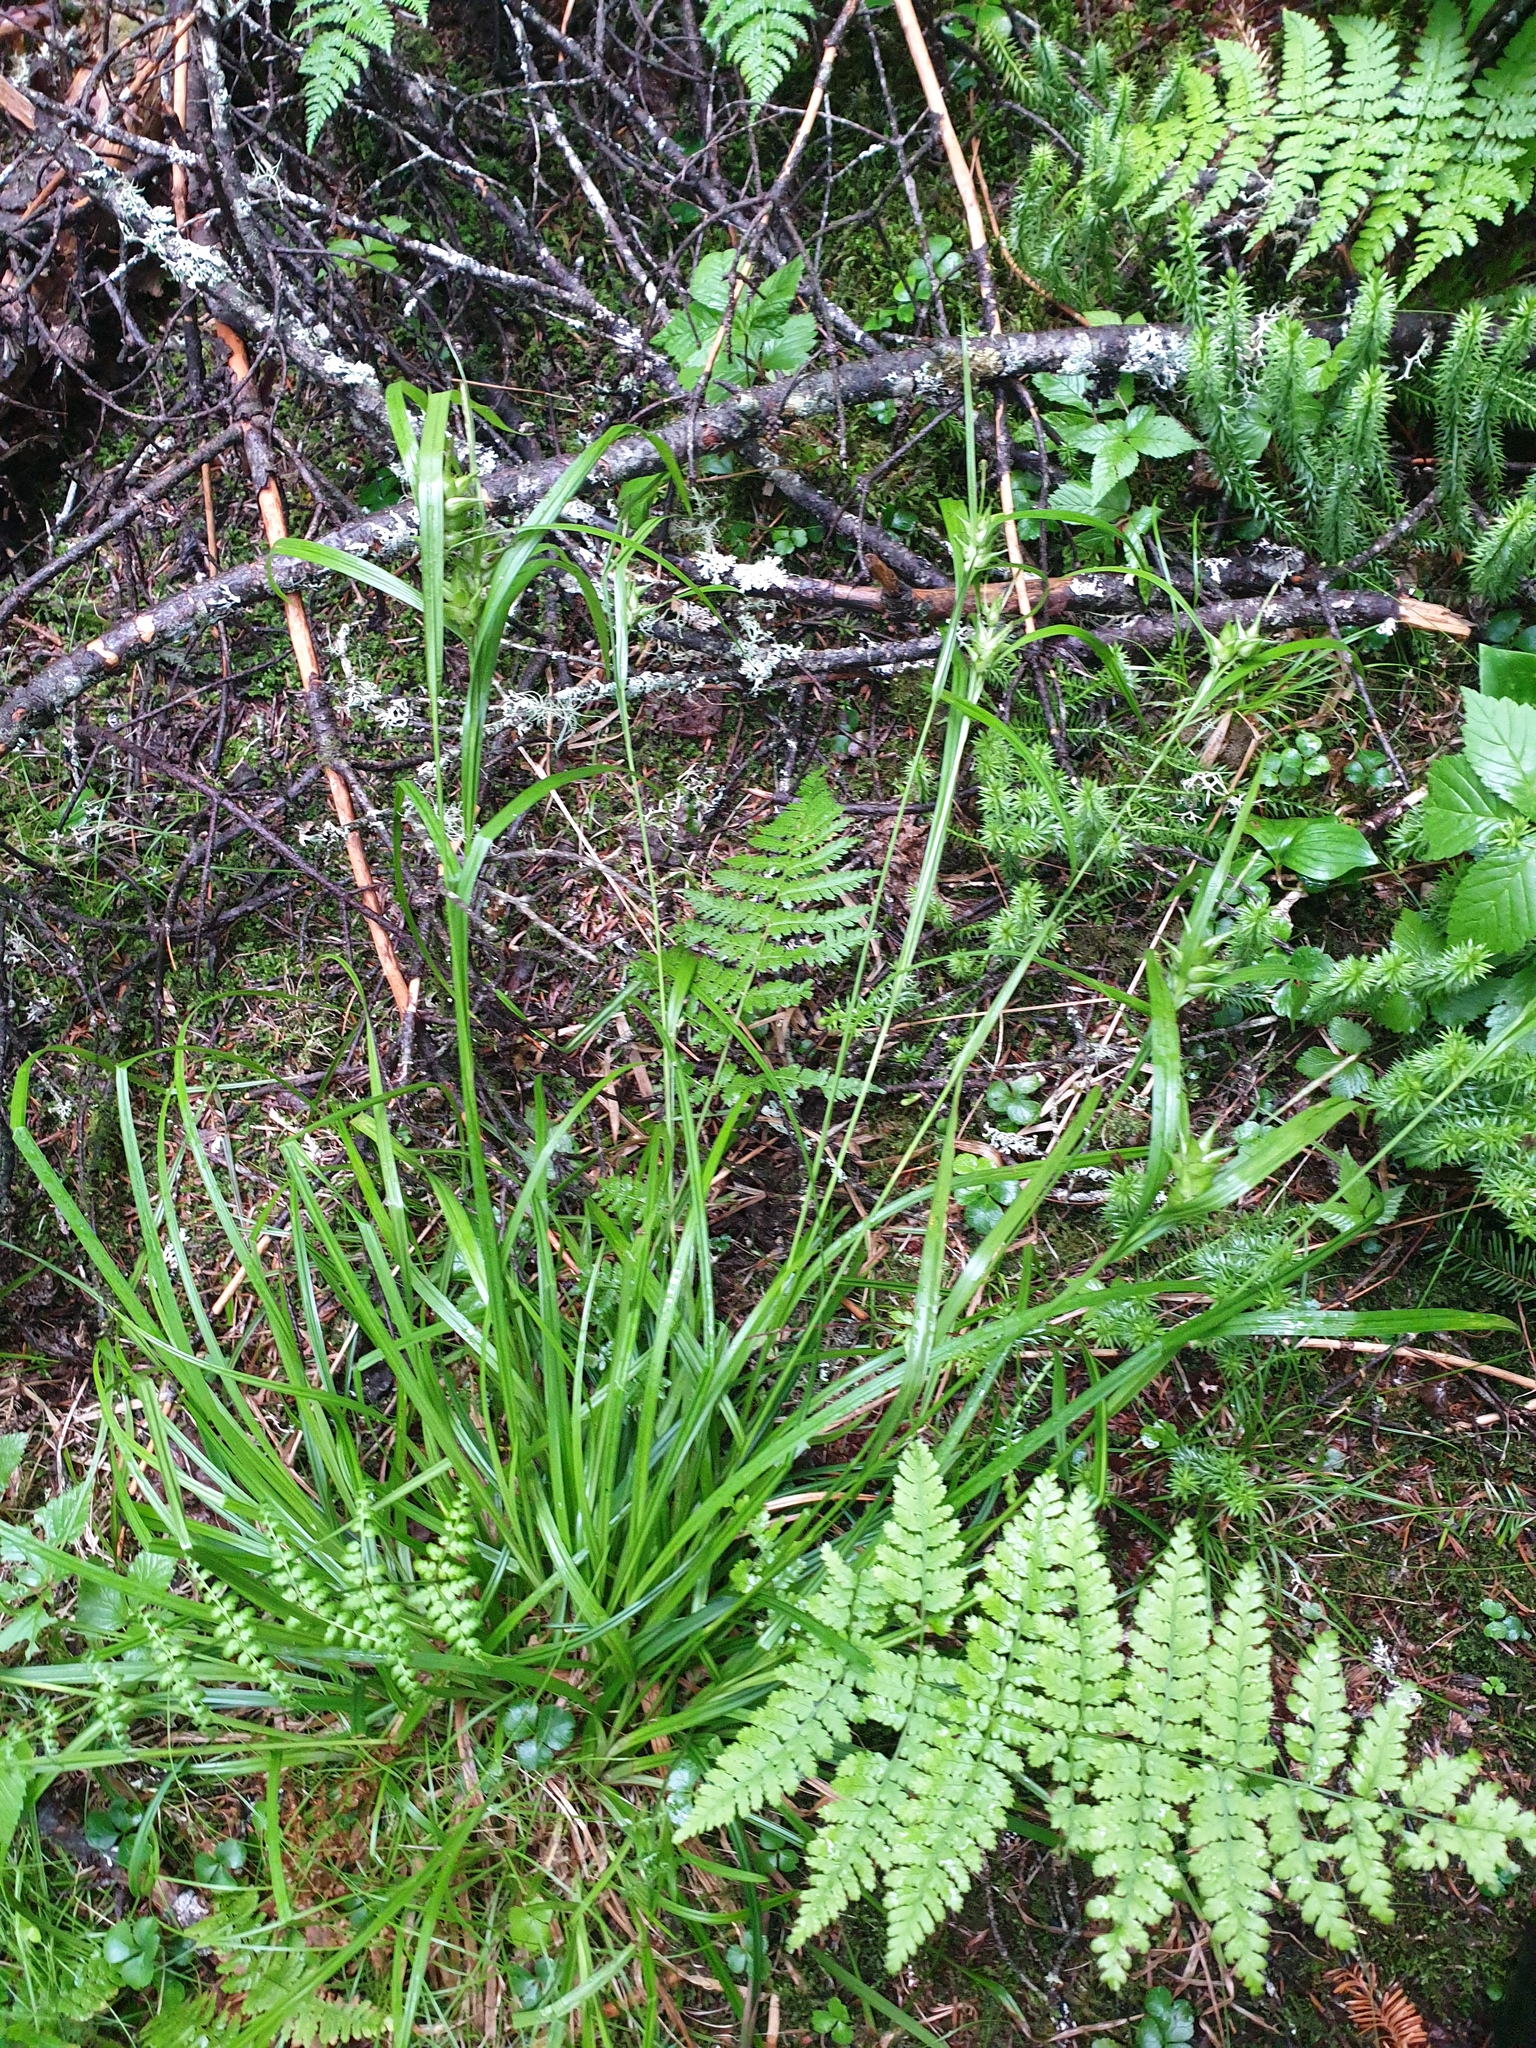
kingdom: Plantae
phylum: Tracheophyta
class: Lycopodiopsida
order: Lycopodiales
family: Lycopodiaceae
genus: Spinulum
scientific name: Spinulum annotinum
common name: Interrupted club-moss
